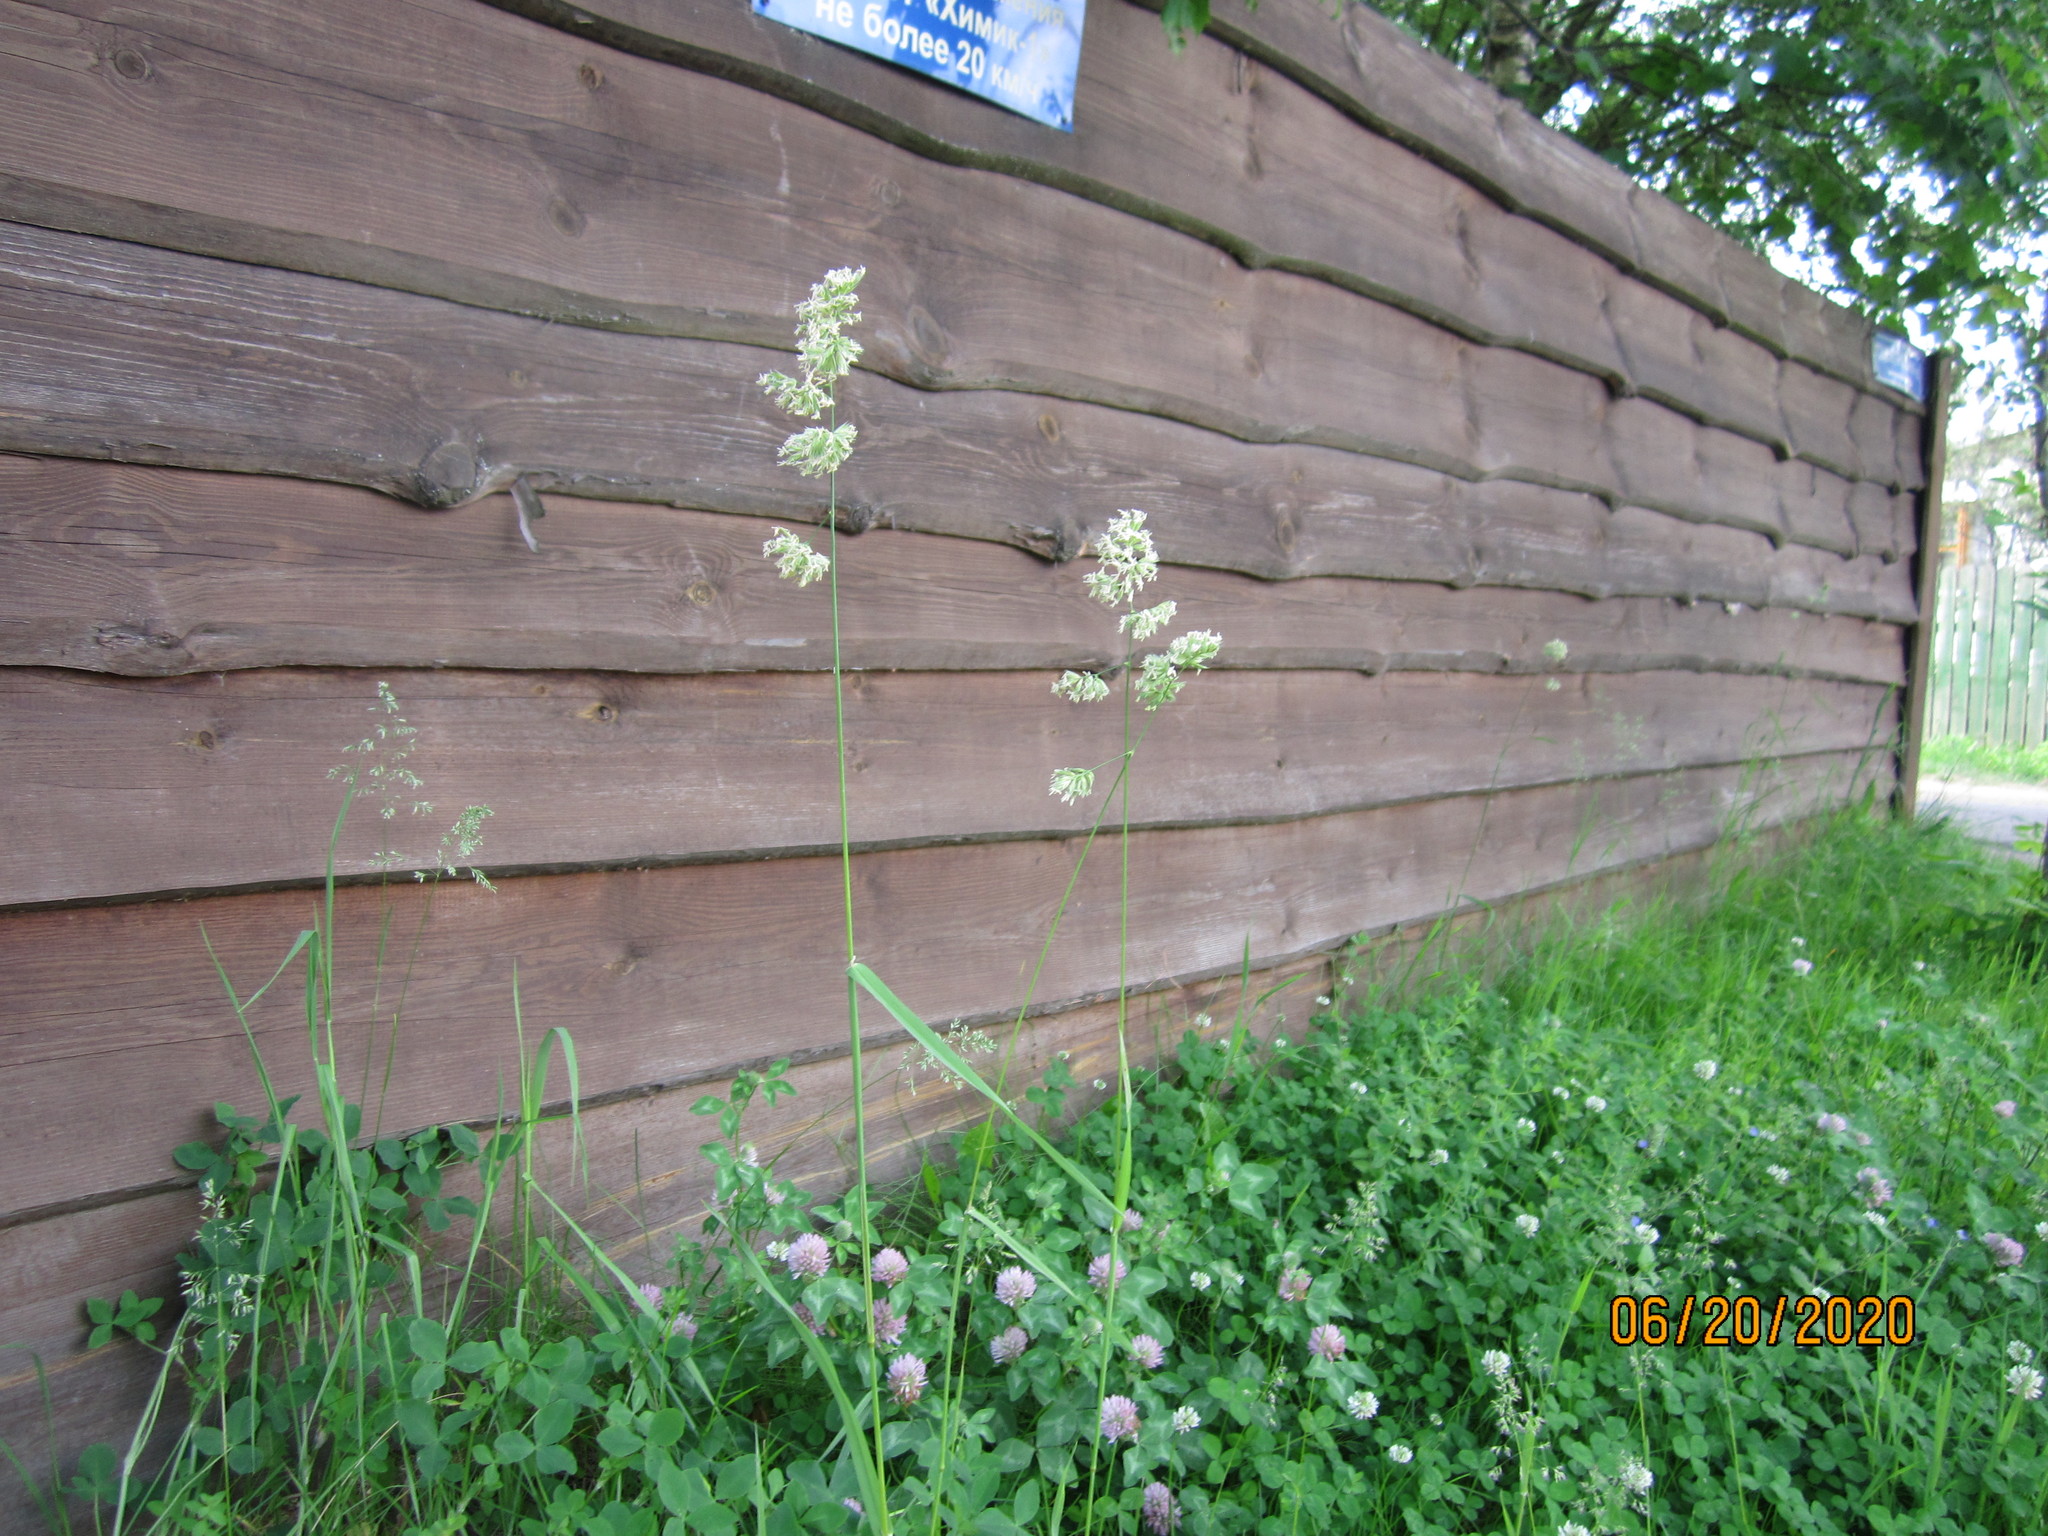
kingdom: Plantae
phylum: Tracheophyta
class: Liliopsida
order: Poales
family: Poaceae
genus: Dactylis
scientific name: Dactylis glomerata
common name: Orchardgrass
